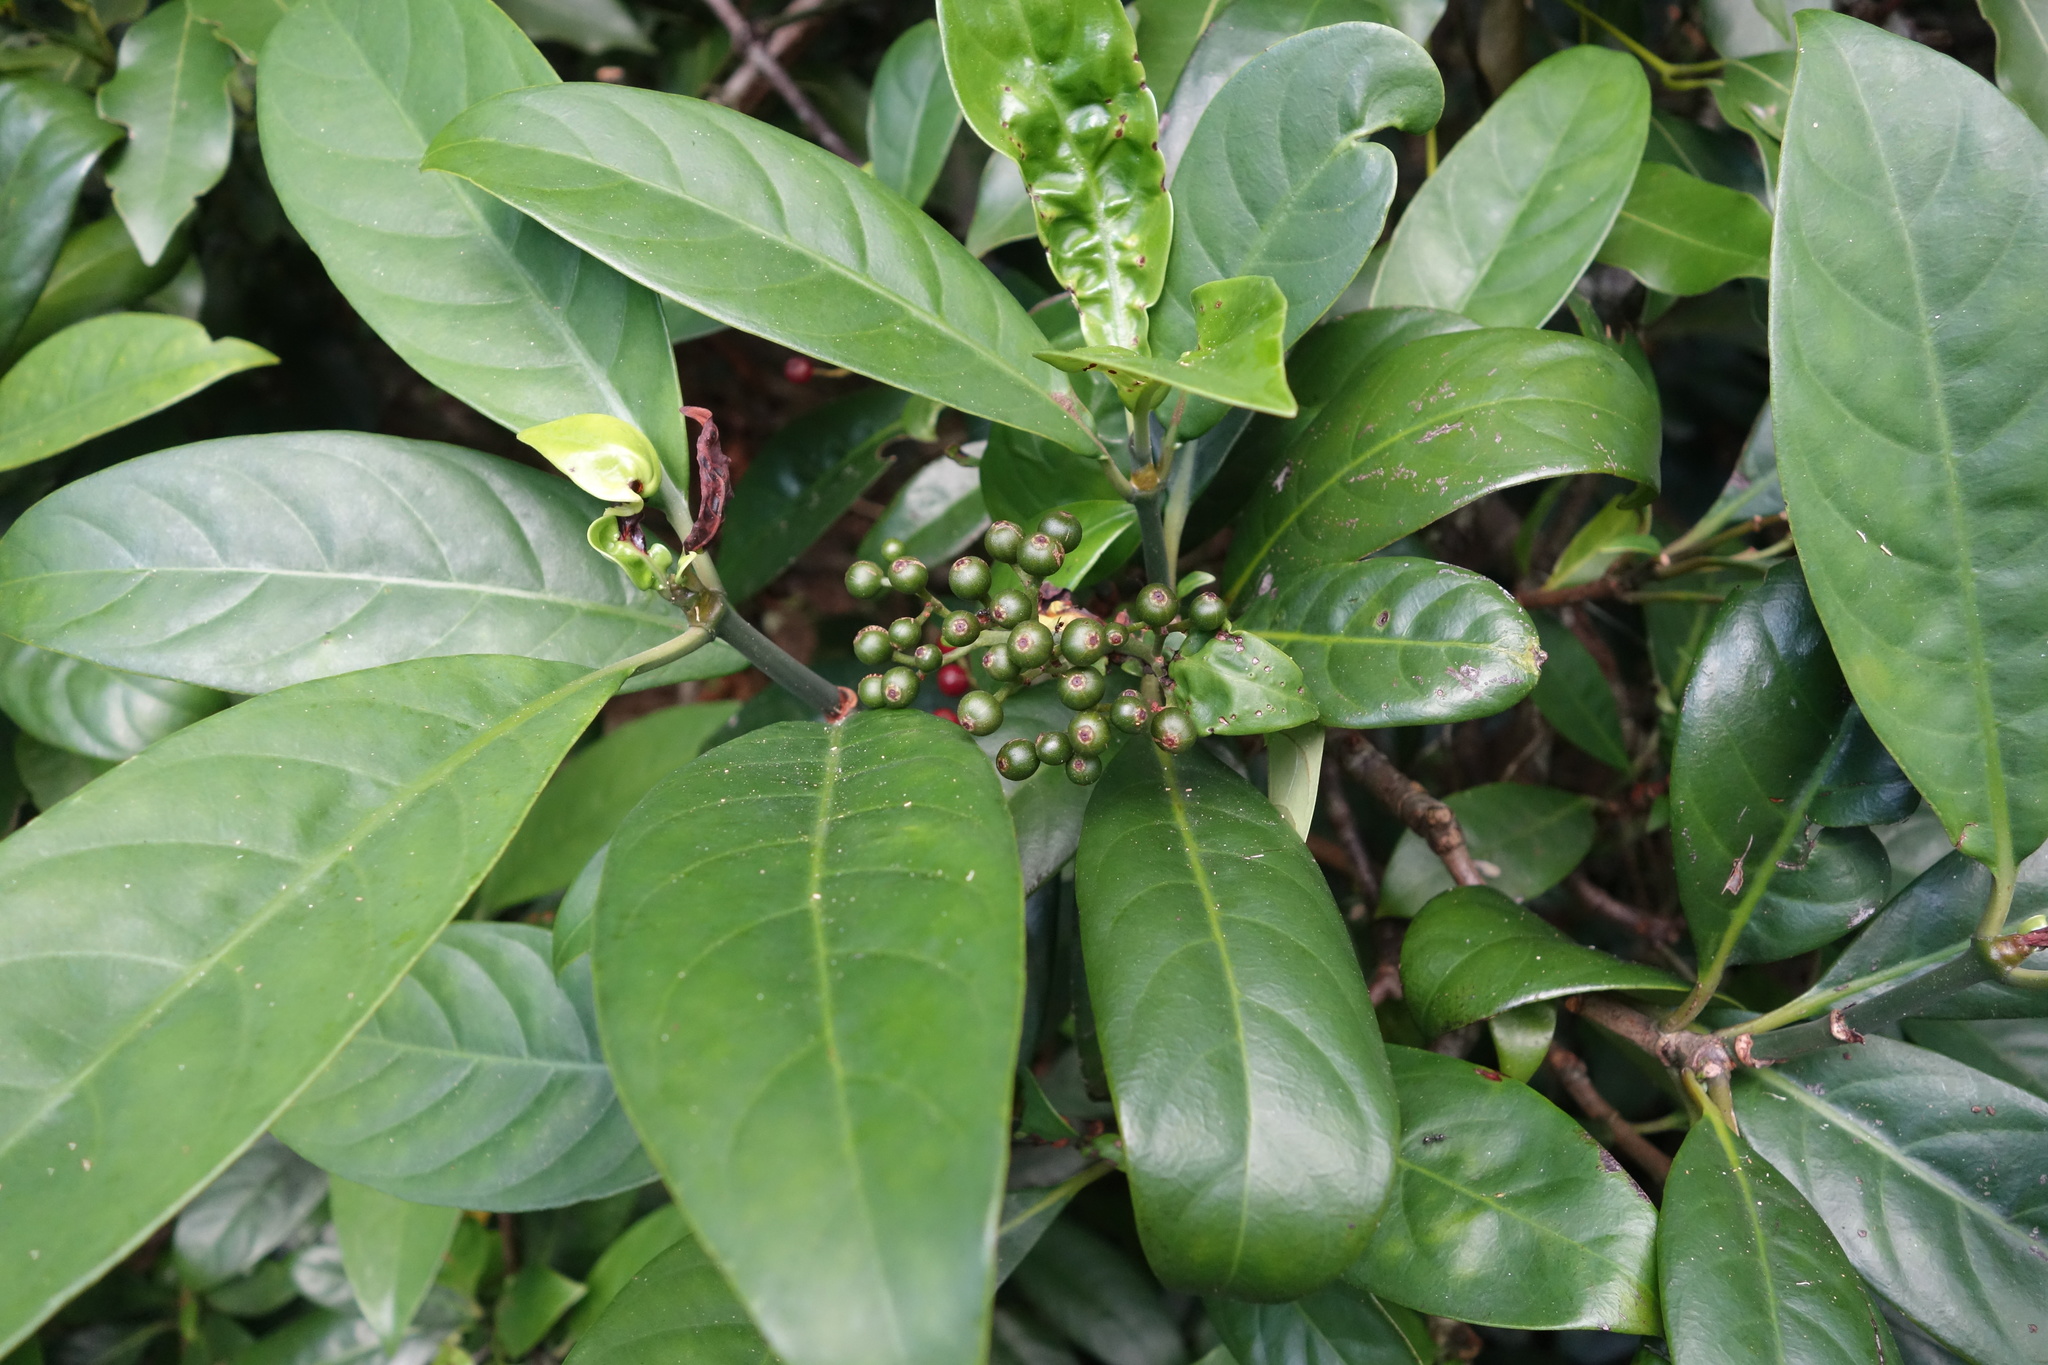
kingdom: Plantae
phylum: Tracheophyta
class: Magnoliopsida
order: Gentianales
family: Rubiaceae
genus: Psychotria
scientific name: Psychotria asiatica
